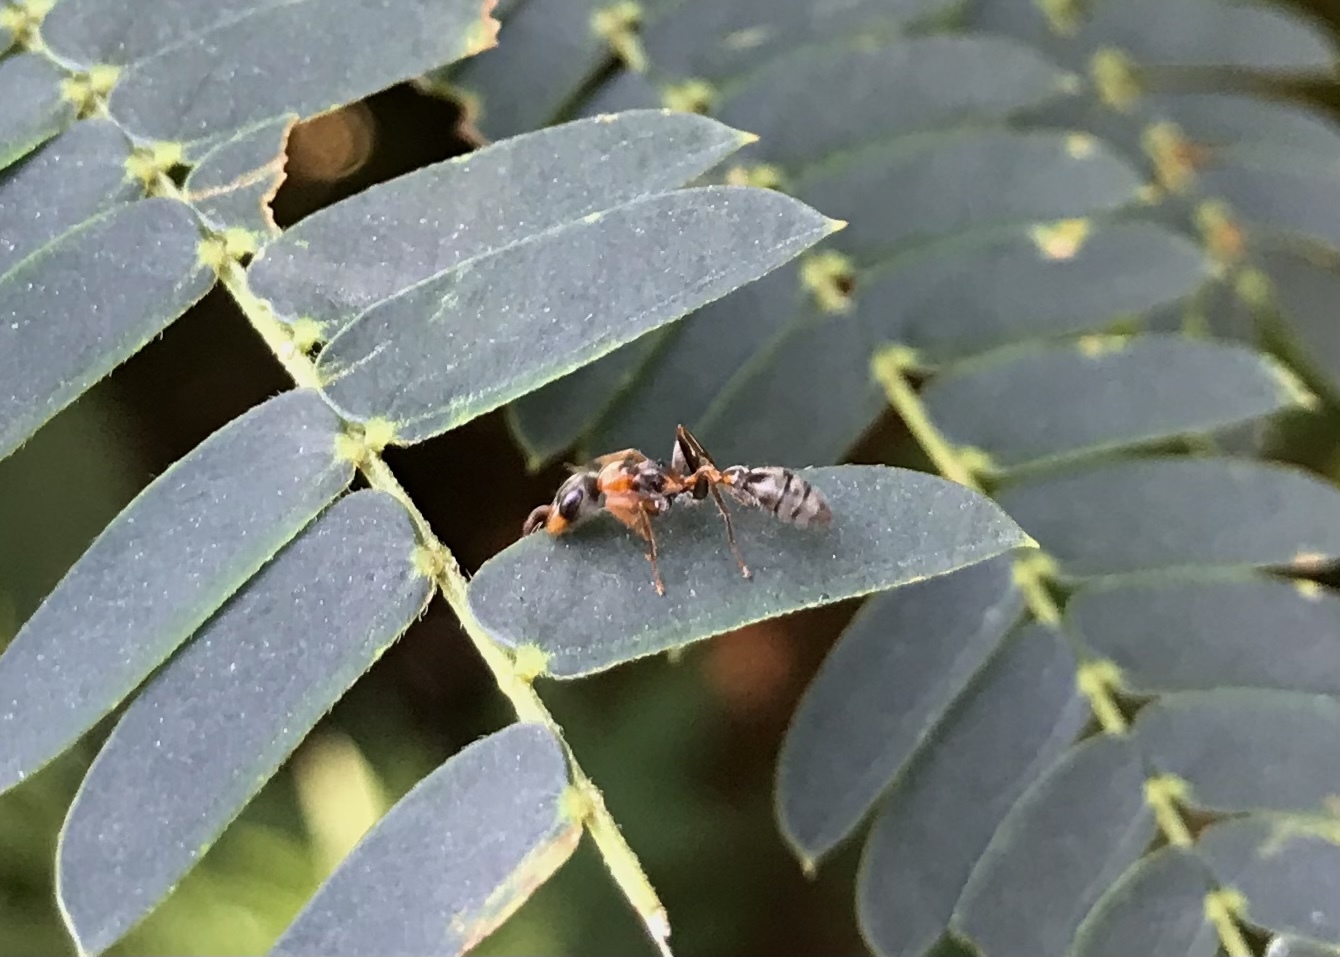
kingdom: Animalia
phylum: Arthropoda
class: Insecta
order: Hymenoptera
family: Formicidae
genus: Pseudomyrmex
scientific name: Pseudomyrmex gracilis
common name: Graceful twig ant
